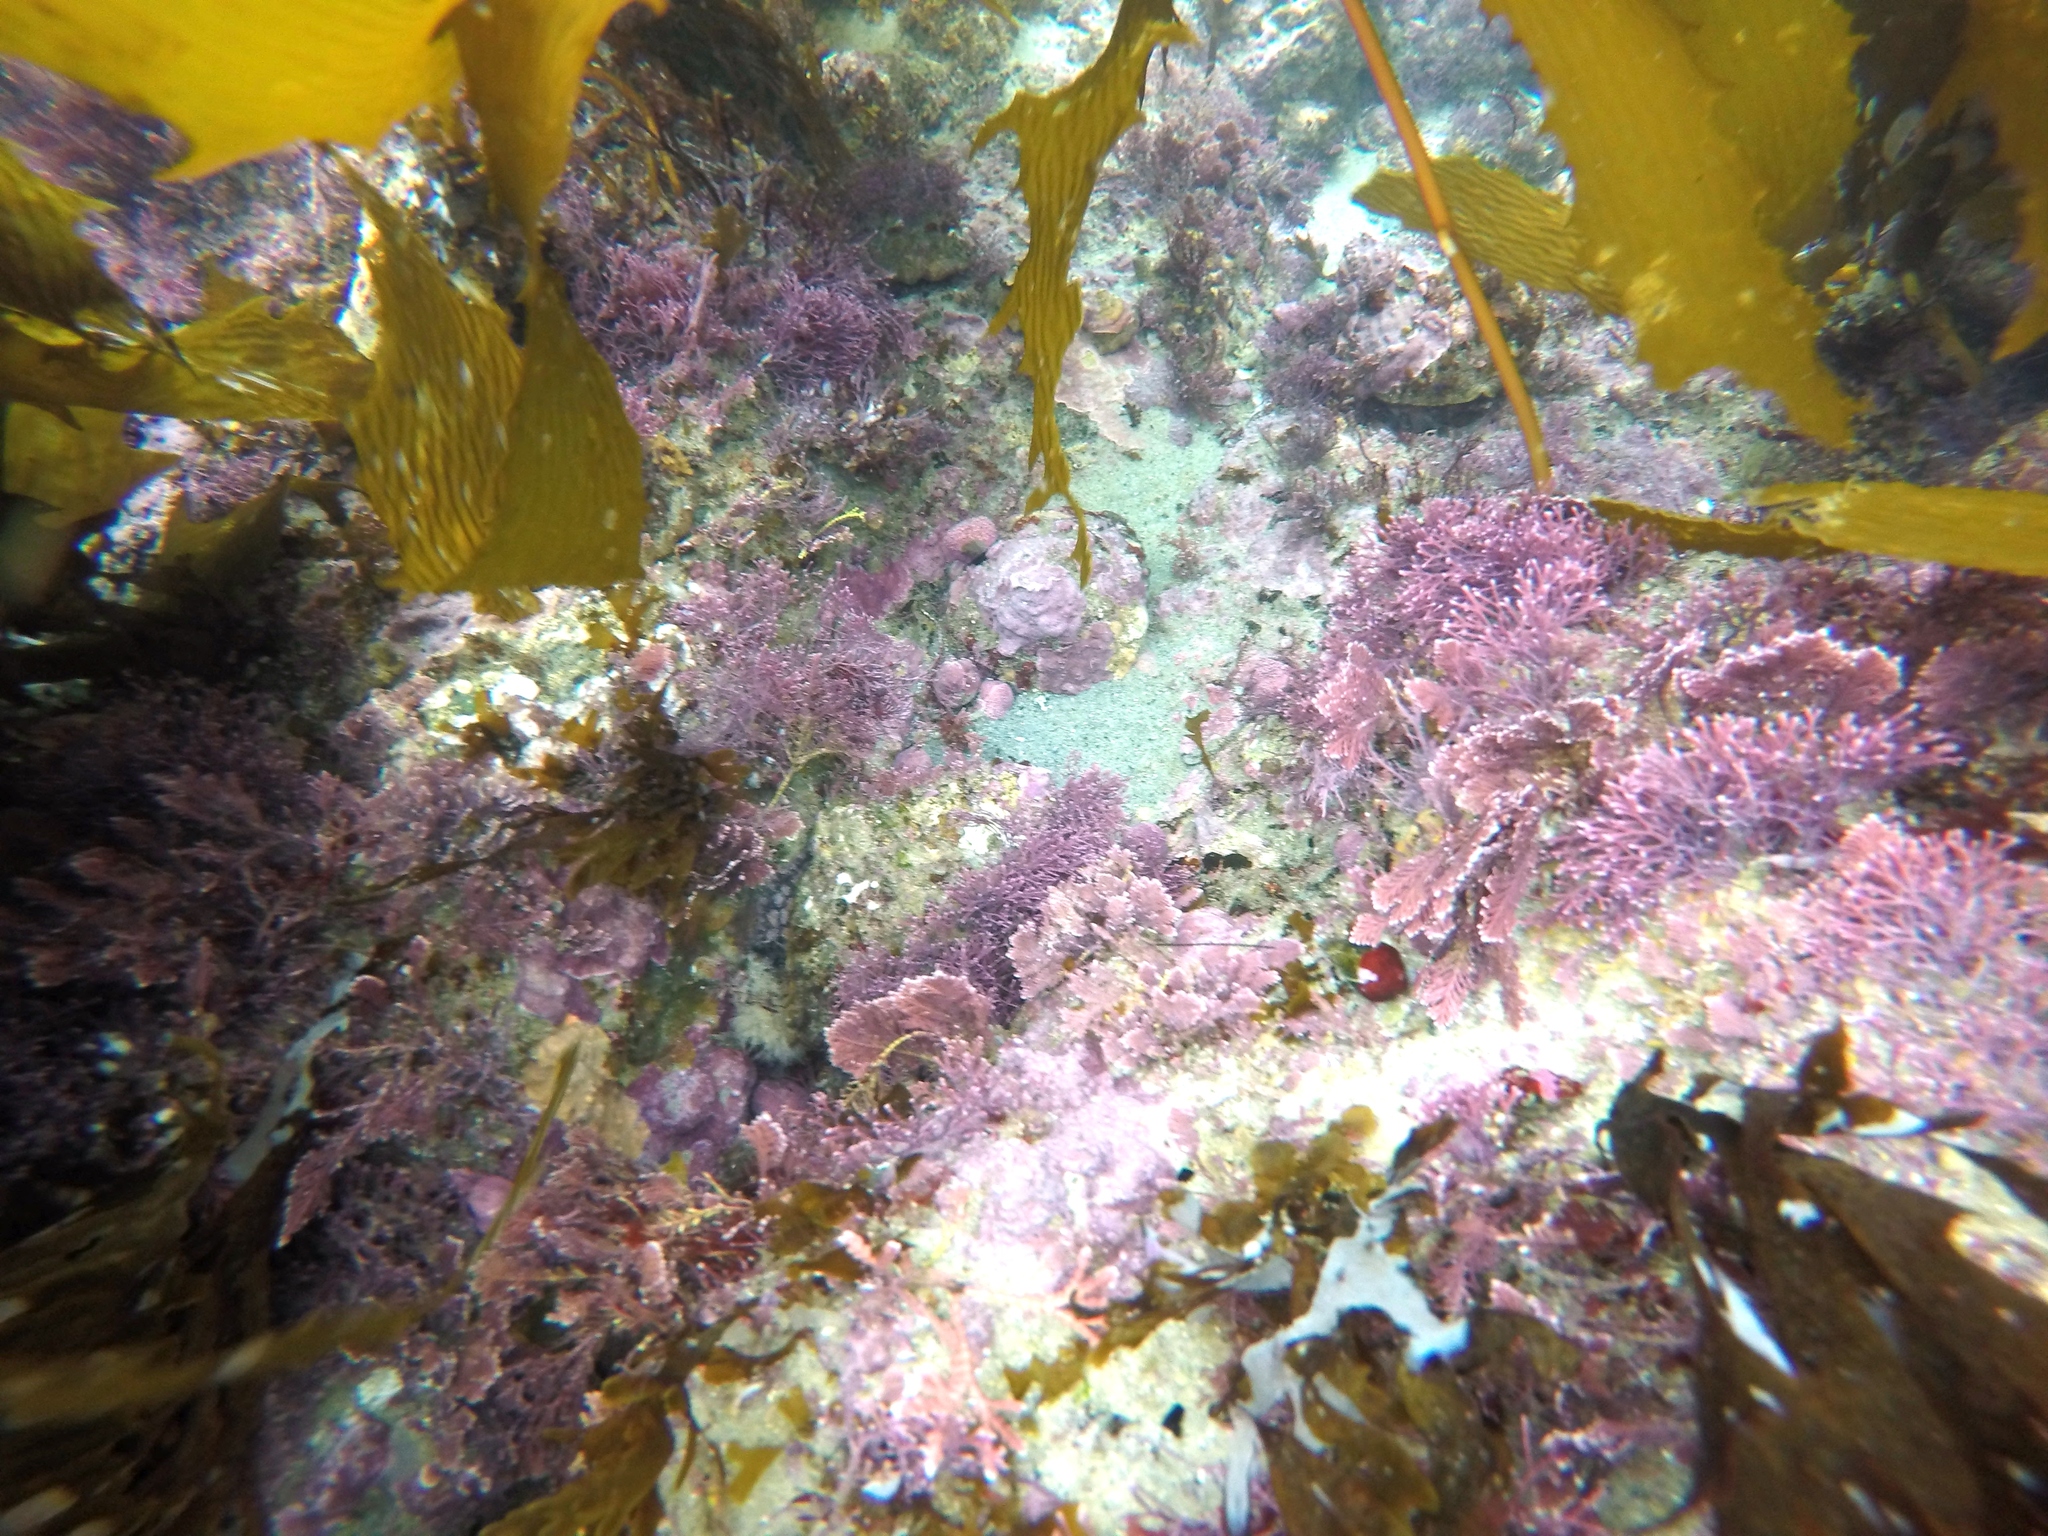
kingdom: Animalia
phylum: Mollusca
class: Gastropoda
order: Trochida
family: Turbinidae
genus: Megastraea
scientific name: Megastraea undosa
